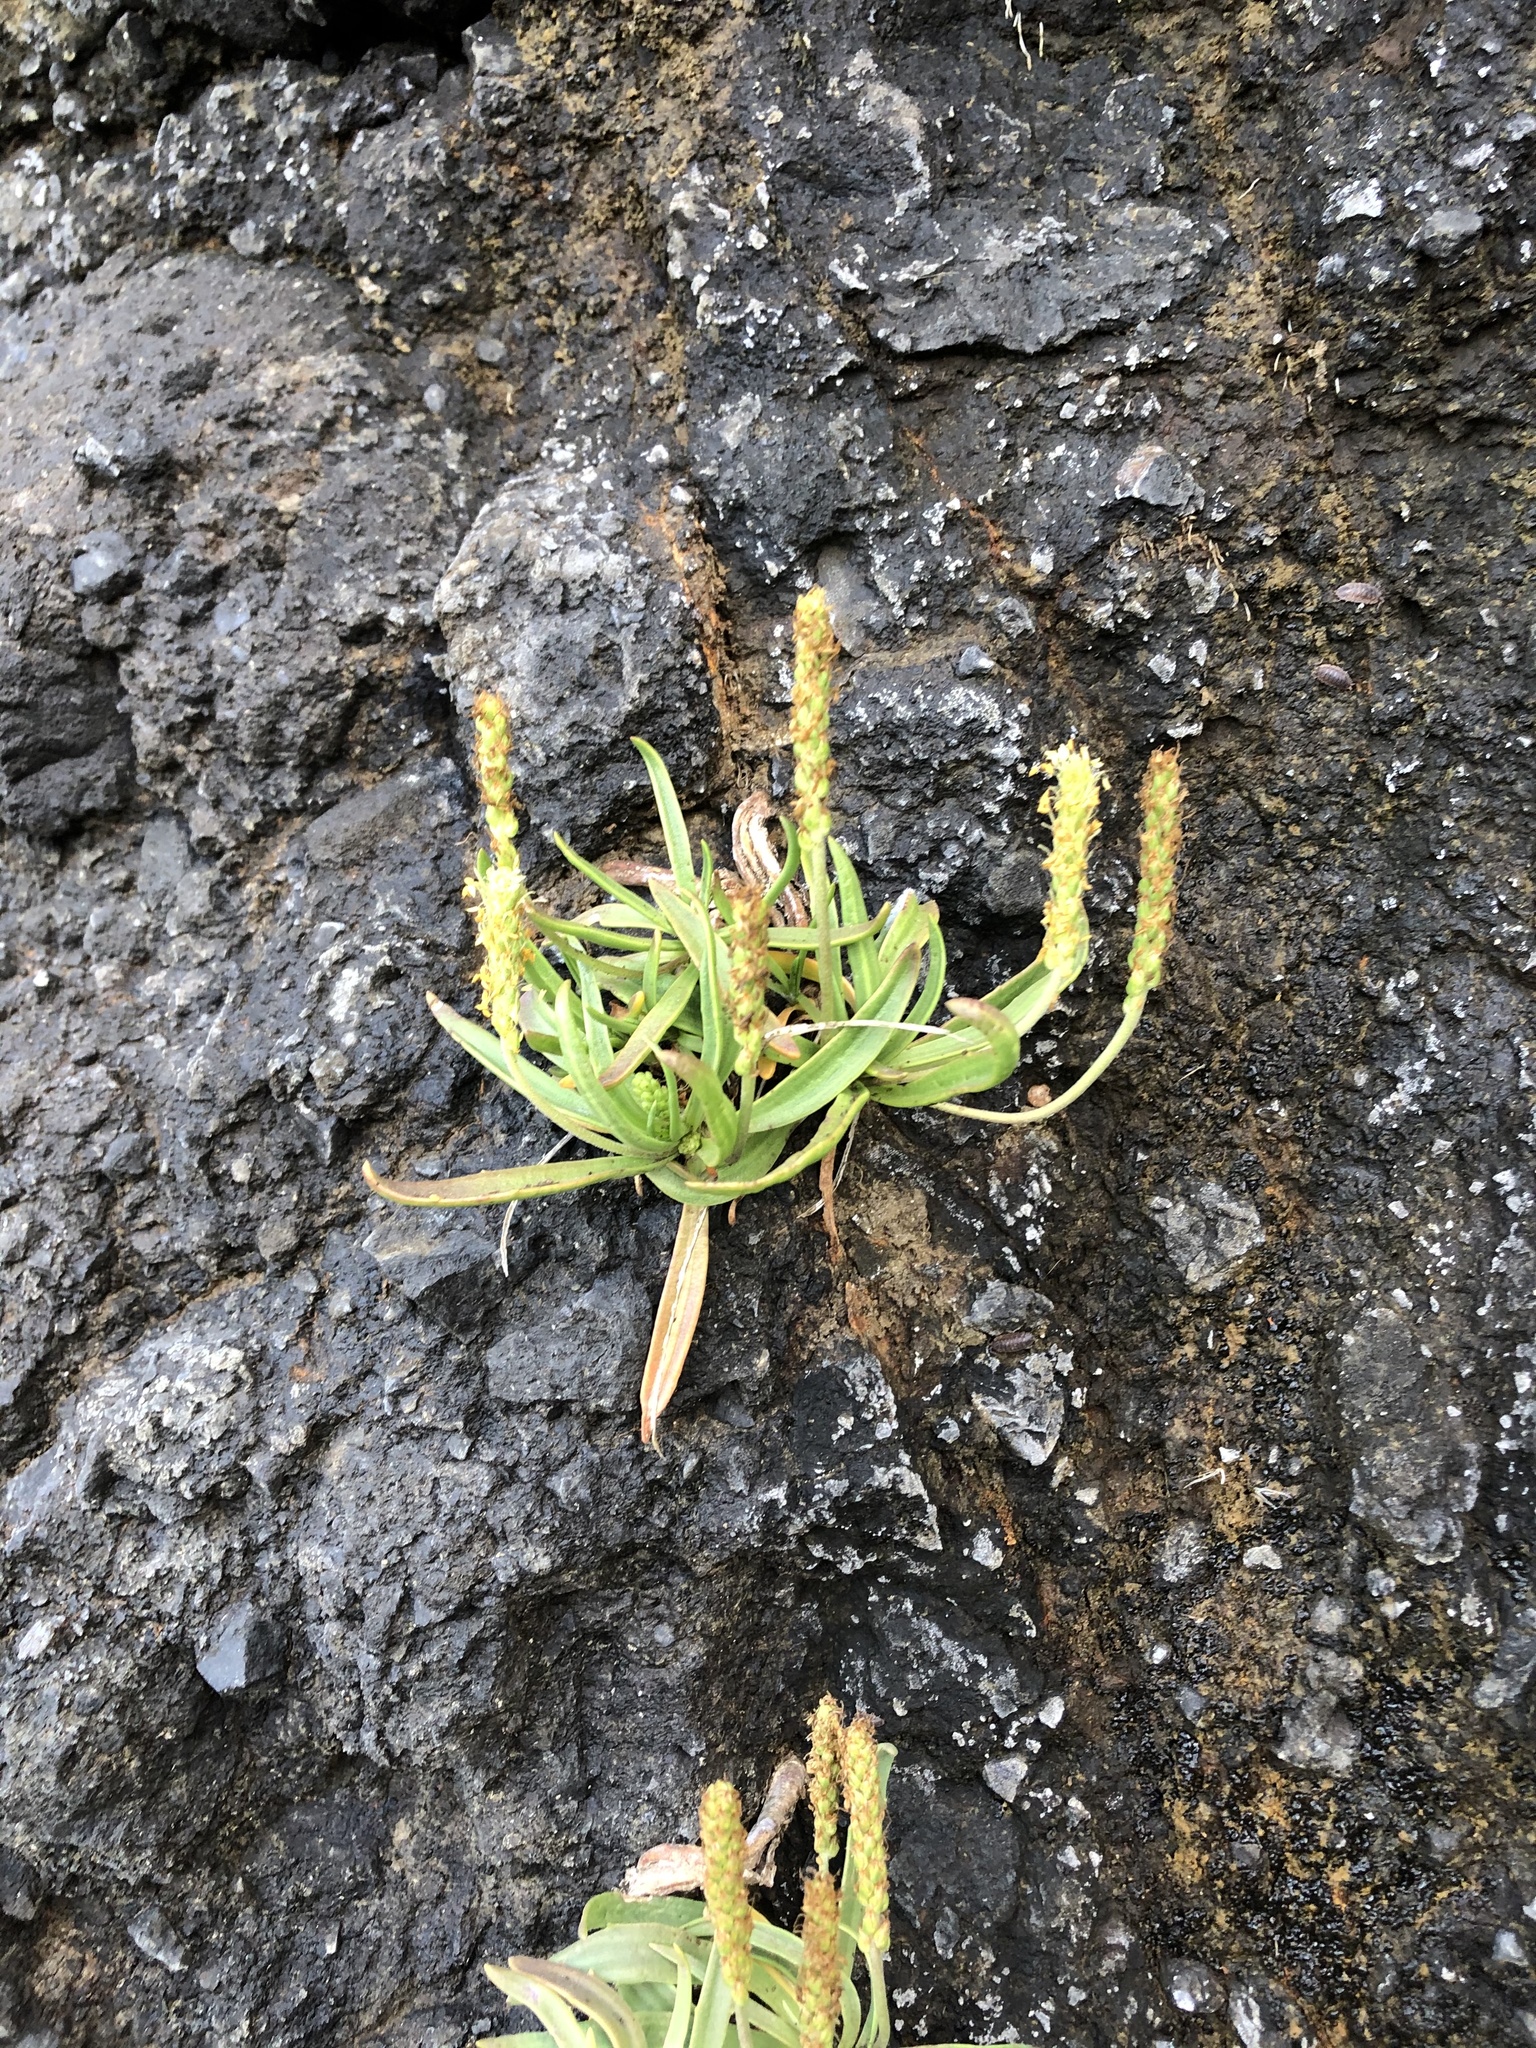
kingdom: Plantae
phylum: Tracheophyta
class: Magnoliopsida
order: Lamiales
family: Plantaginaceae
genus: Plantago
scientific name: Plantago maritima
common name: Sea plantain
